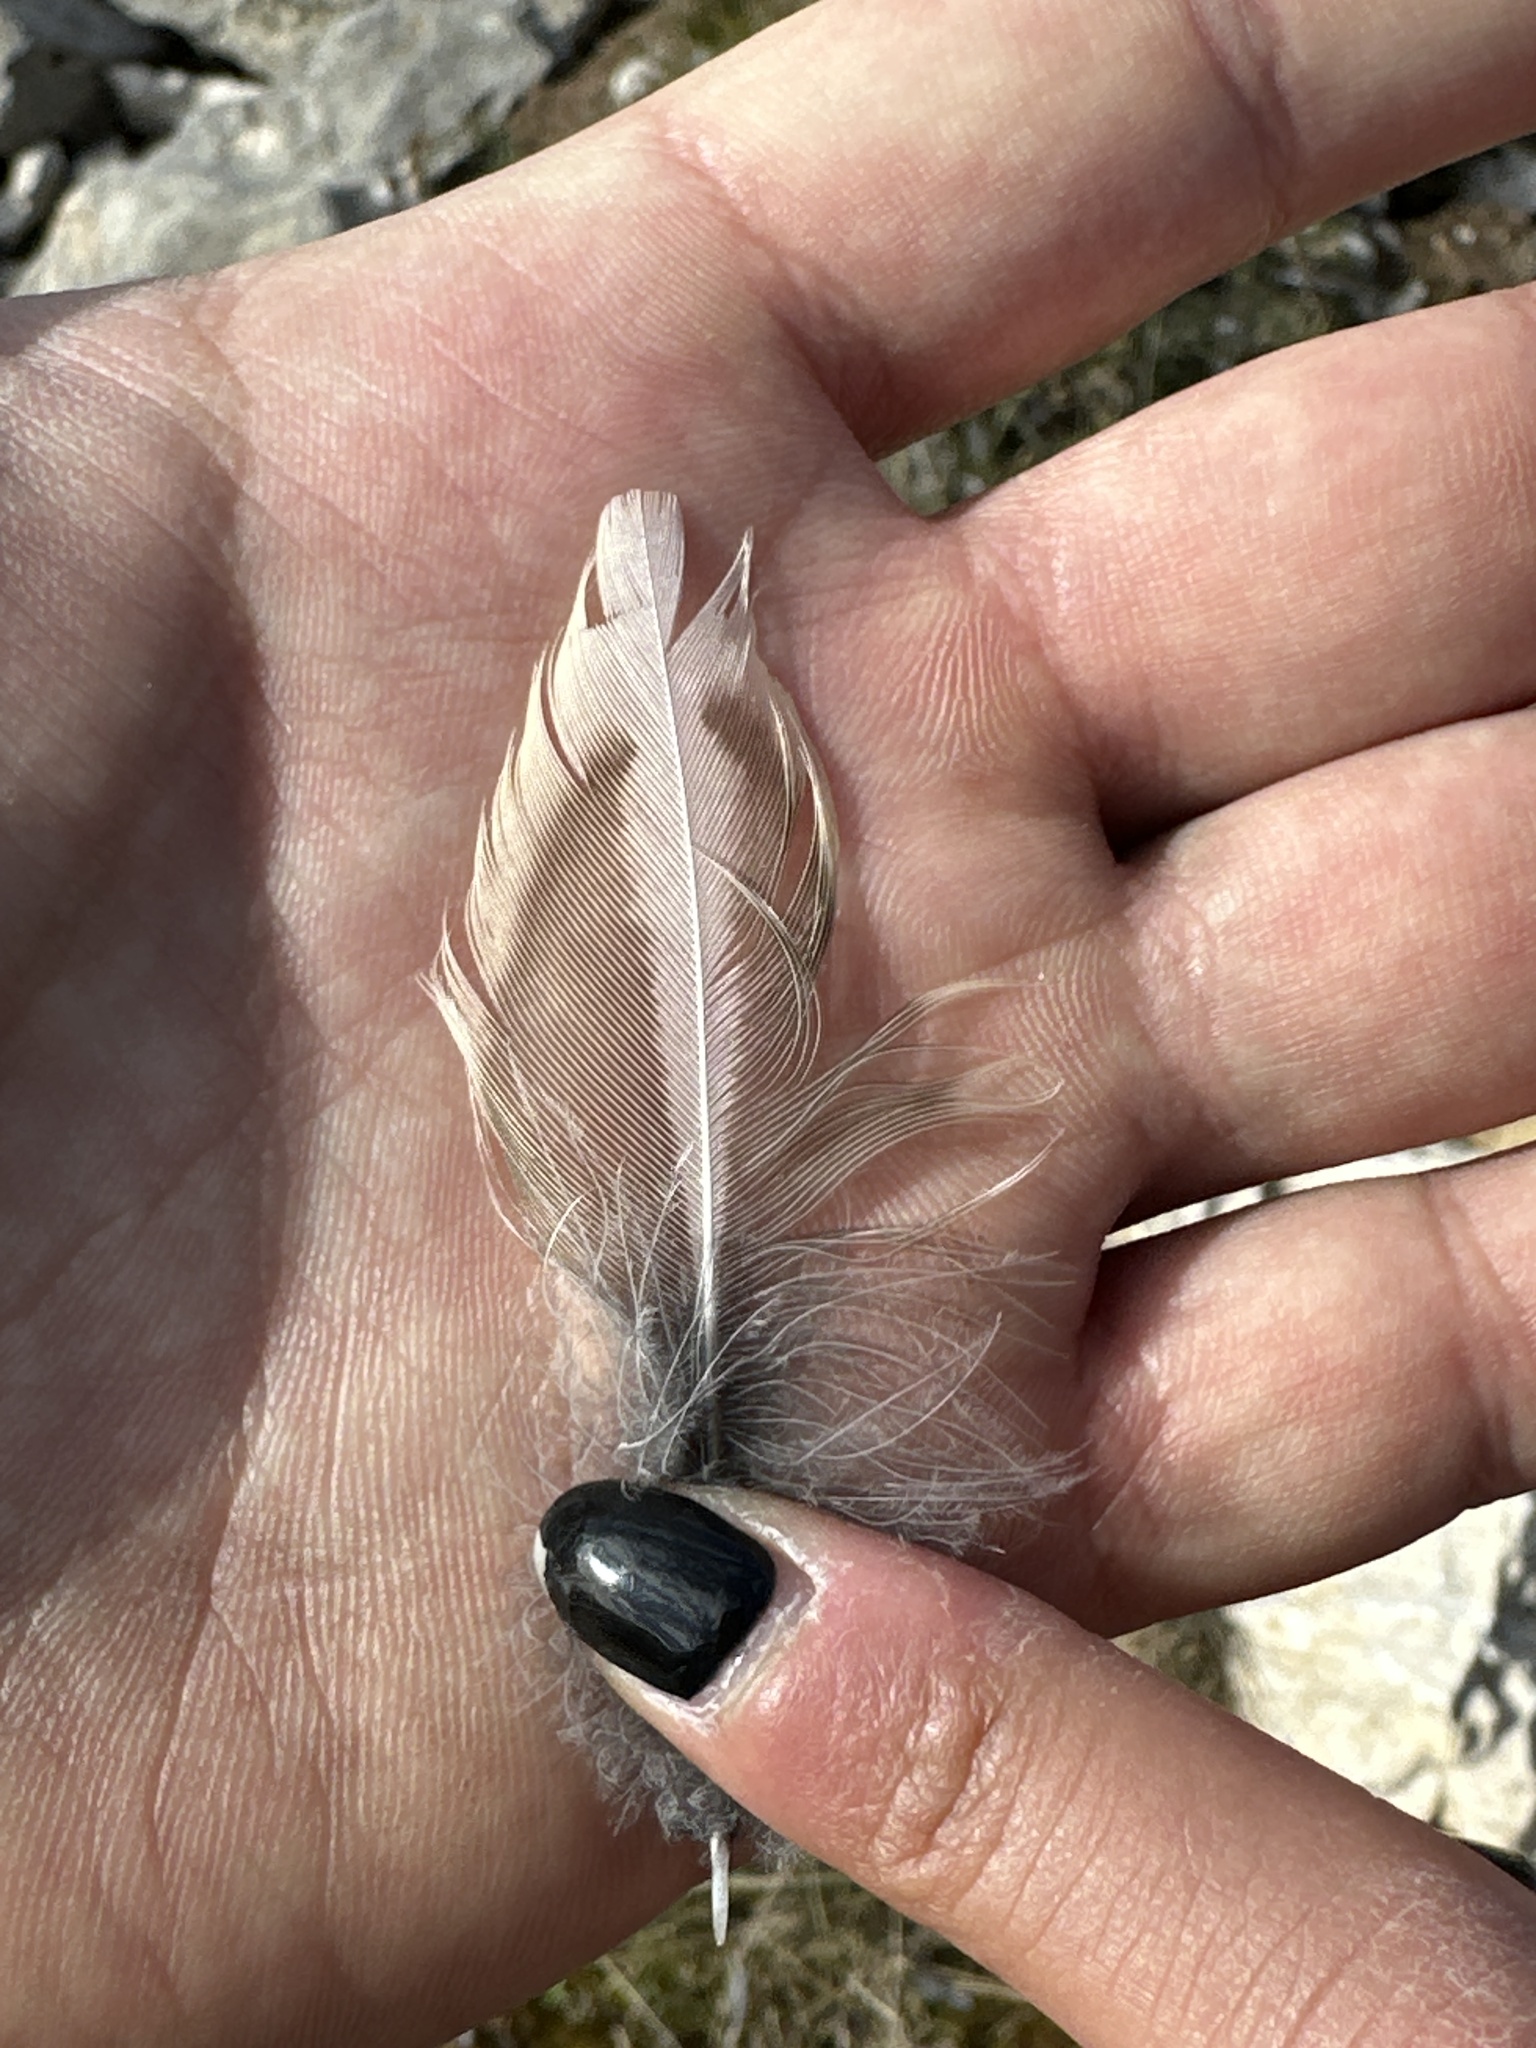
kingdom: Animalia
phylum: Chordata
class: Aves
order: Passeriformes
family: Turdidae
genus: Turdus
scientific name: Turdus viscivorus
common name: Mistle thrush
